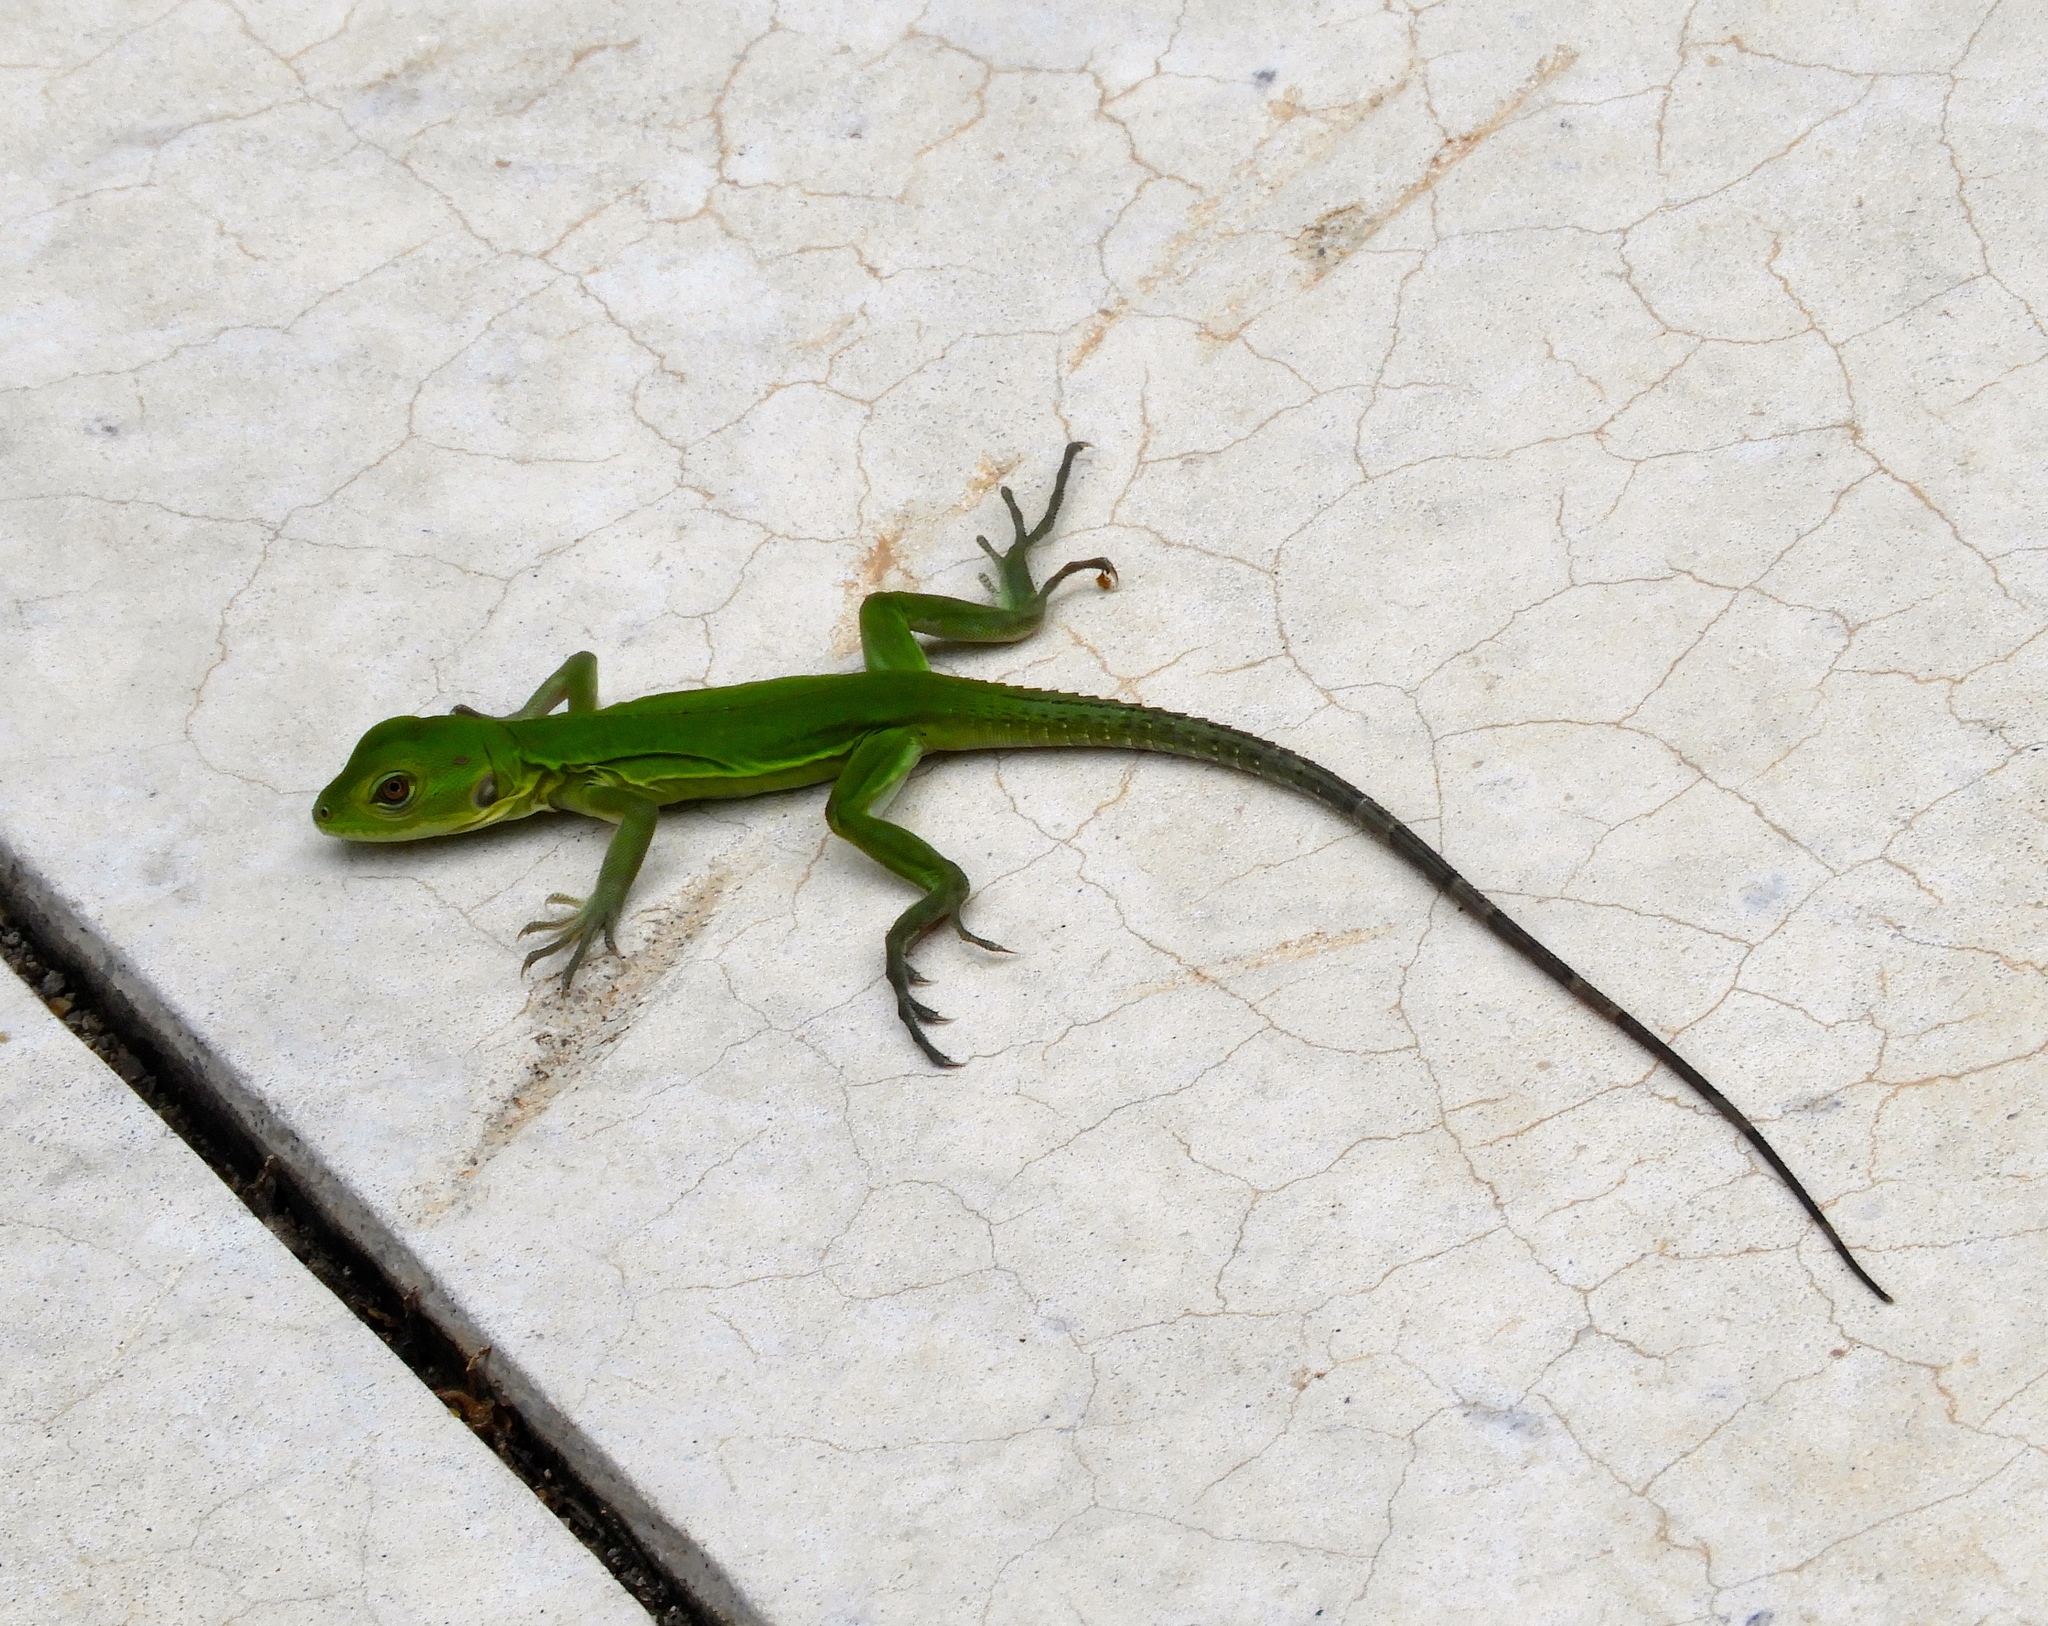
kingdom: Animalia
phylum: Chordata
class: Squamata
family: Iguanidae
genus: Ctenosaura
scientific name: Ctenosaura pectinata
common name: Guerreran spiny-tailed iguana
